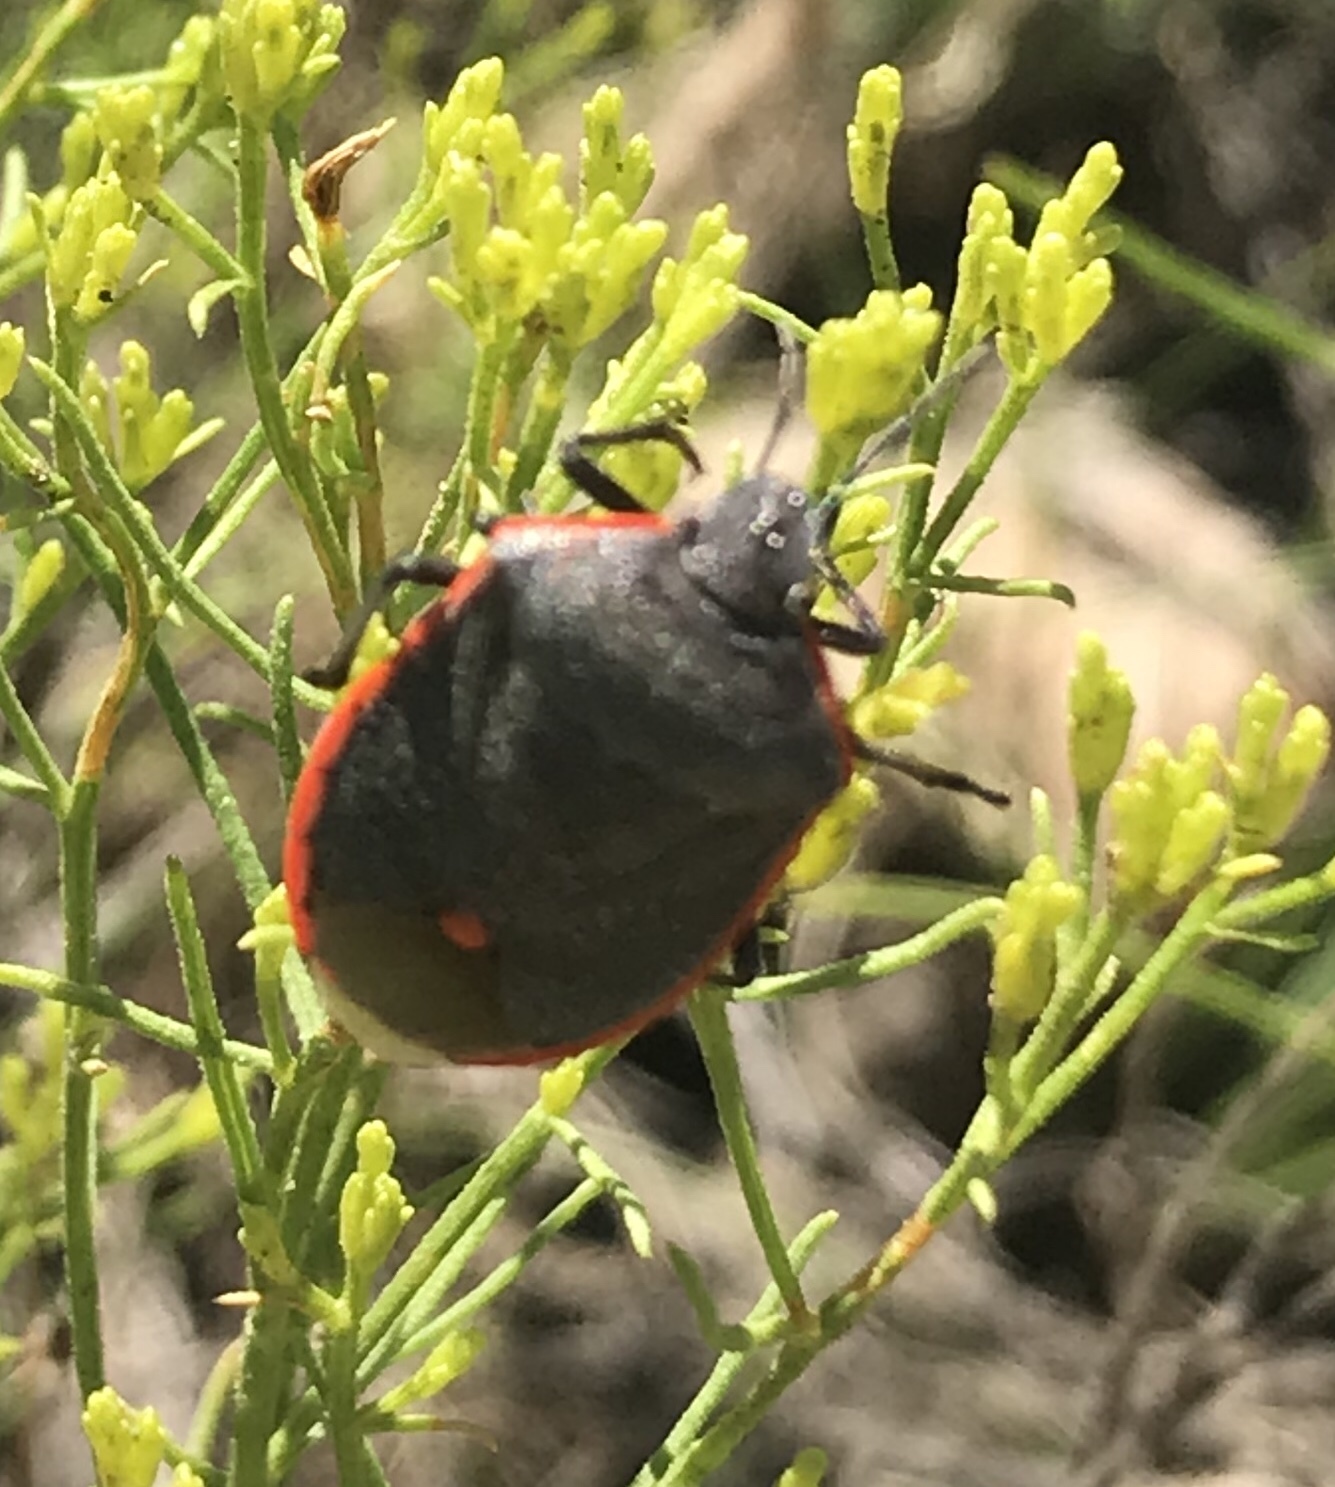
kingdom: Animalia
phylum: Arthropoda
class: Insecta
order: Hemiptera
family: Pentatomidae
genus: Chlorochroa
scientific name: Chlorochroa ligata
